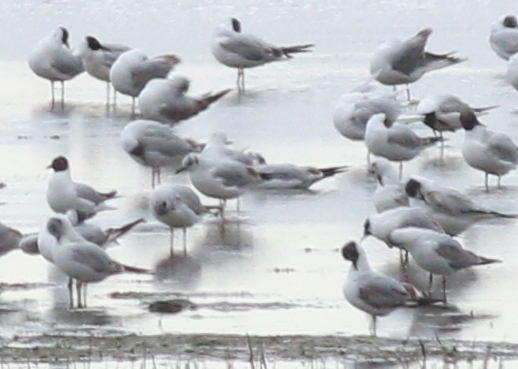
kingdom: Animalia
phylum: Chordata
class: Aves
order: Charadriiformes
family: Laridae
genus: Chroicocephalus
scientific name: Chroicocephalus ridibundus
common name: Black-headed gull
